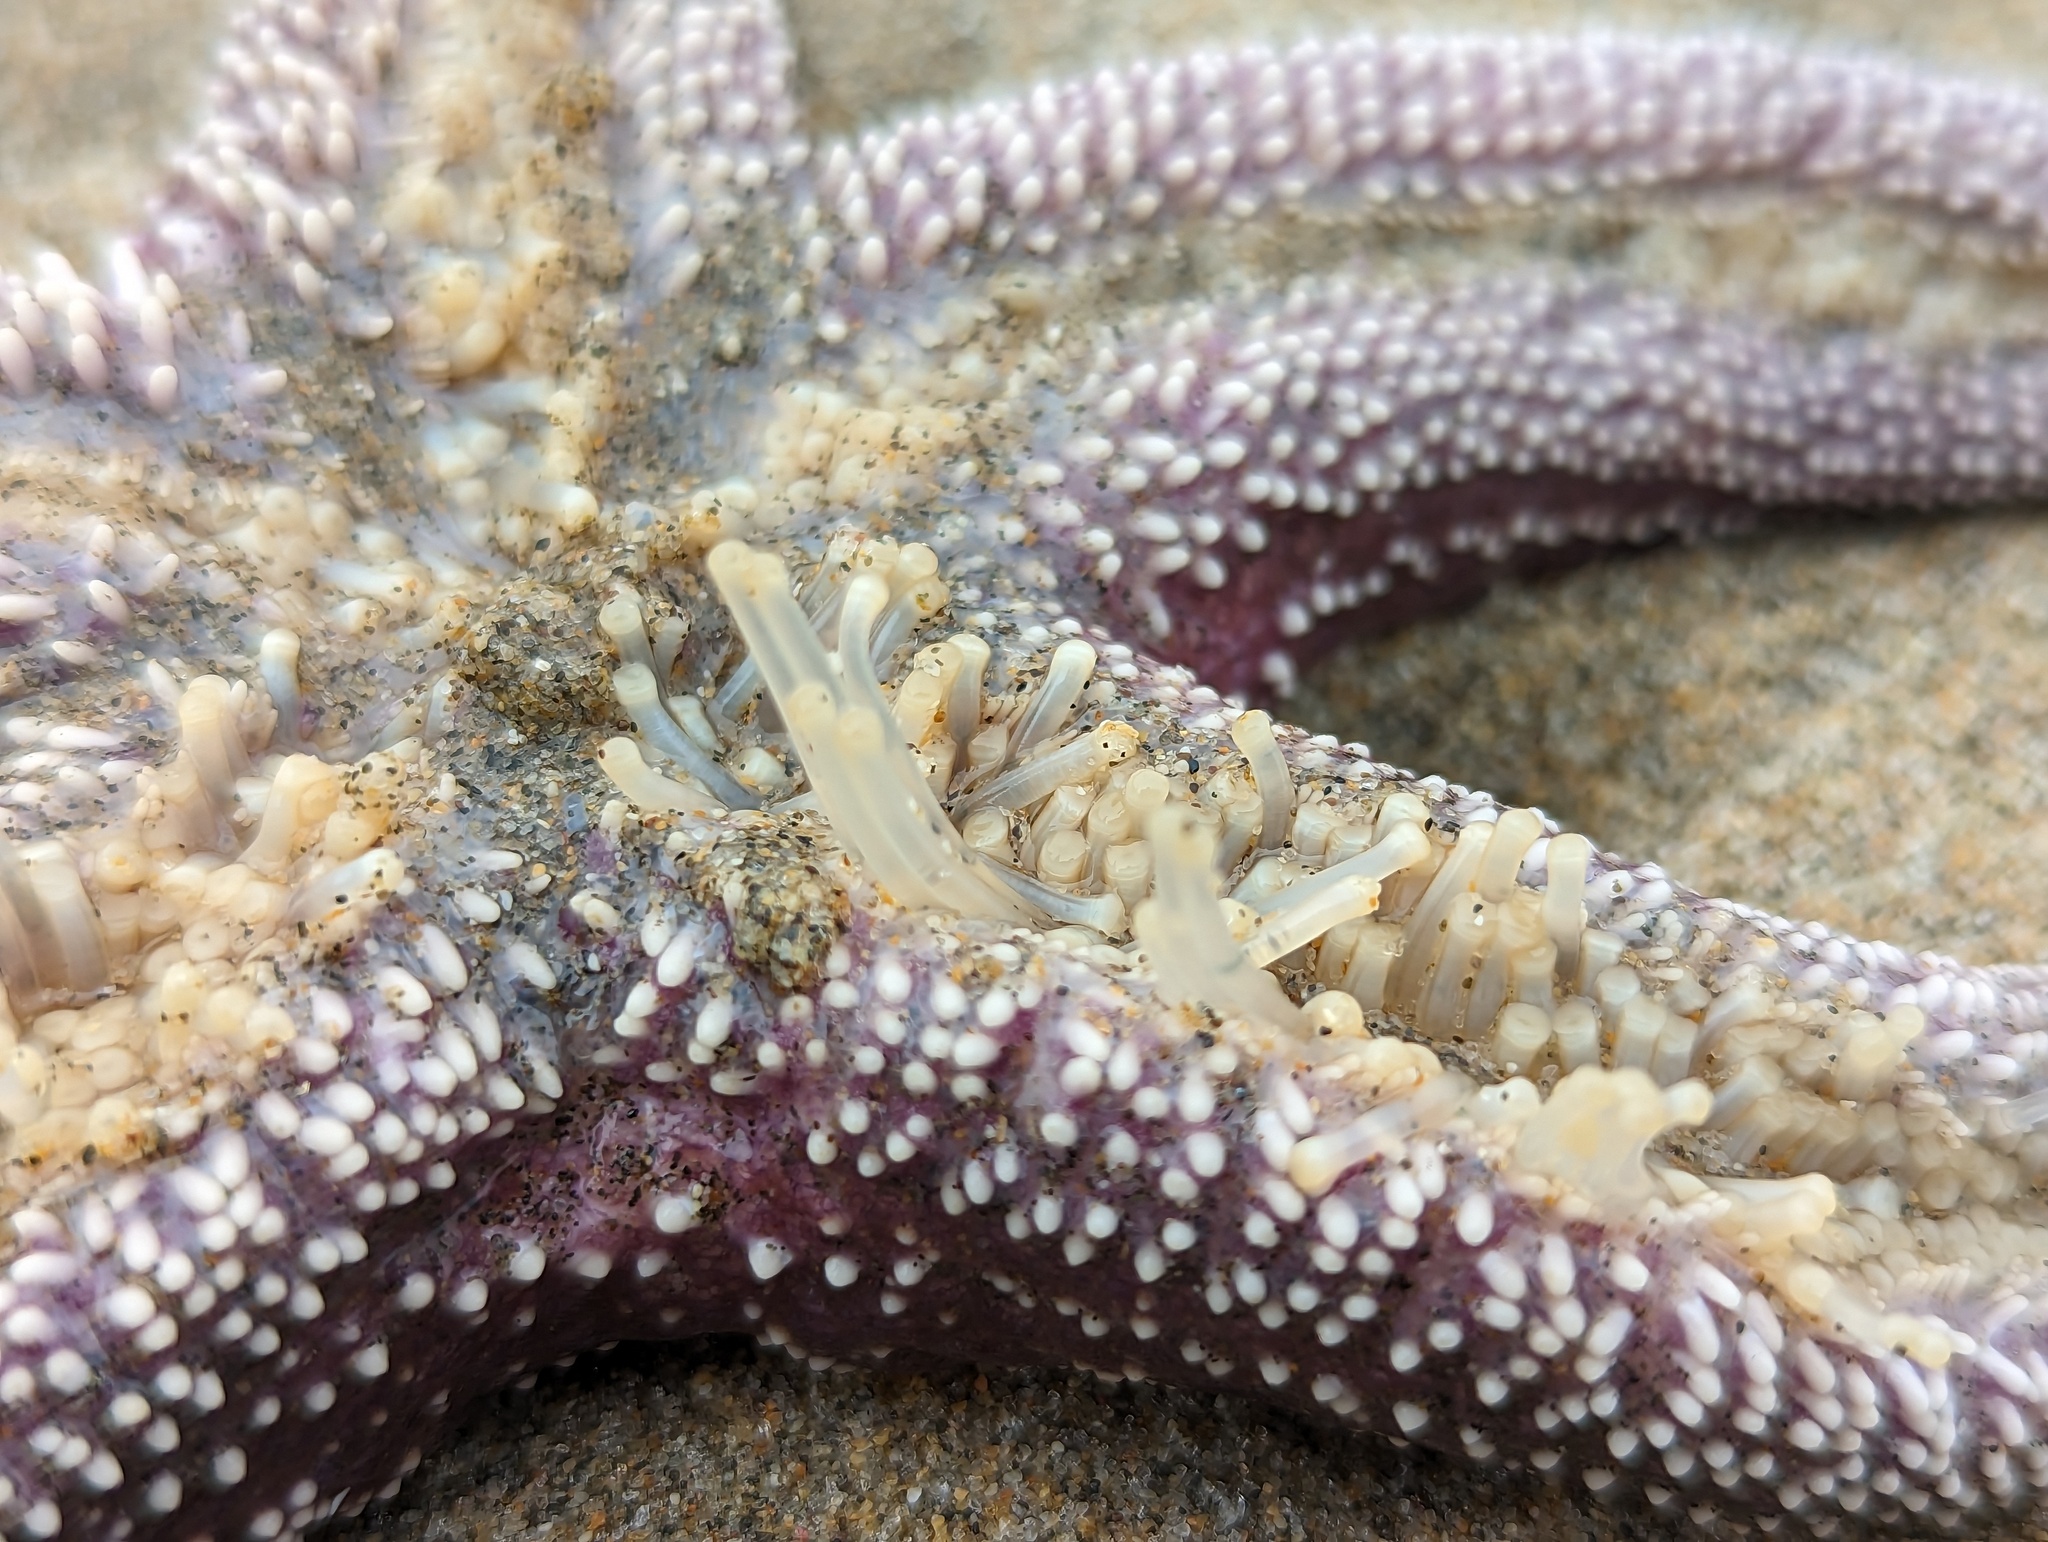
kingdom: Animalia
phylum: Echinodermata
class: Asteroidea
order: Forcipulatida
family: Asteriidae
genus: Pisaster
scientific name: Pisaster ochraceus
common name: Ochre stars
